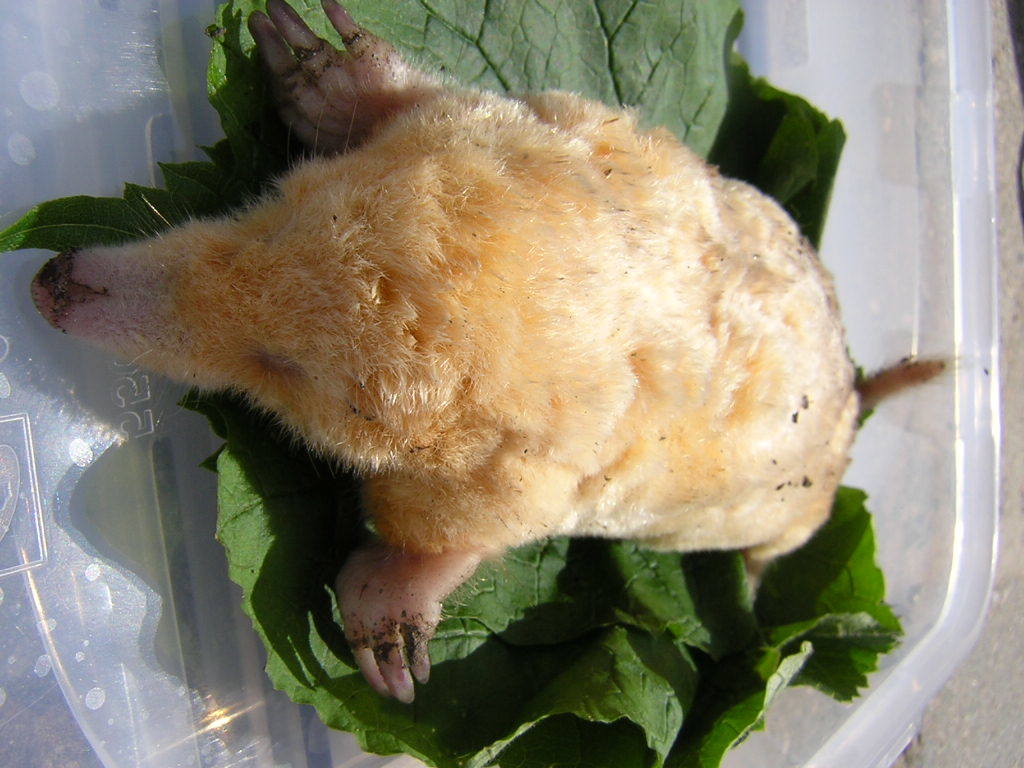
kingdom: Animalia
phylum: Chordata
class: Mammalia
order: Soricomorpha
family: Talpidae
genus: Talpa
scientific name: Talpa europaea
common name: European mole
